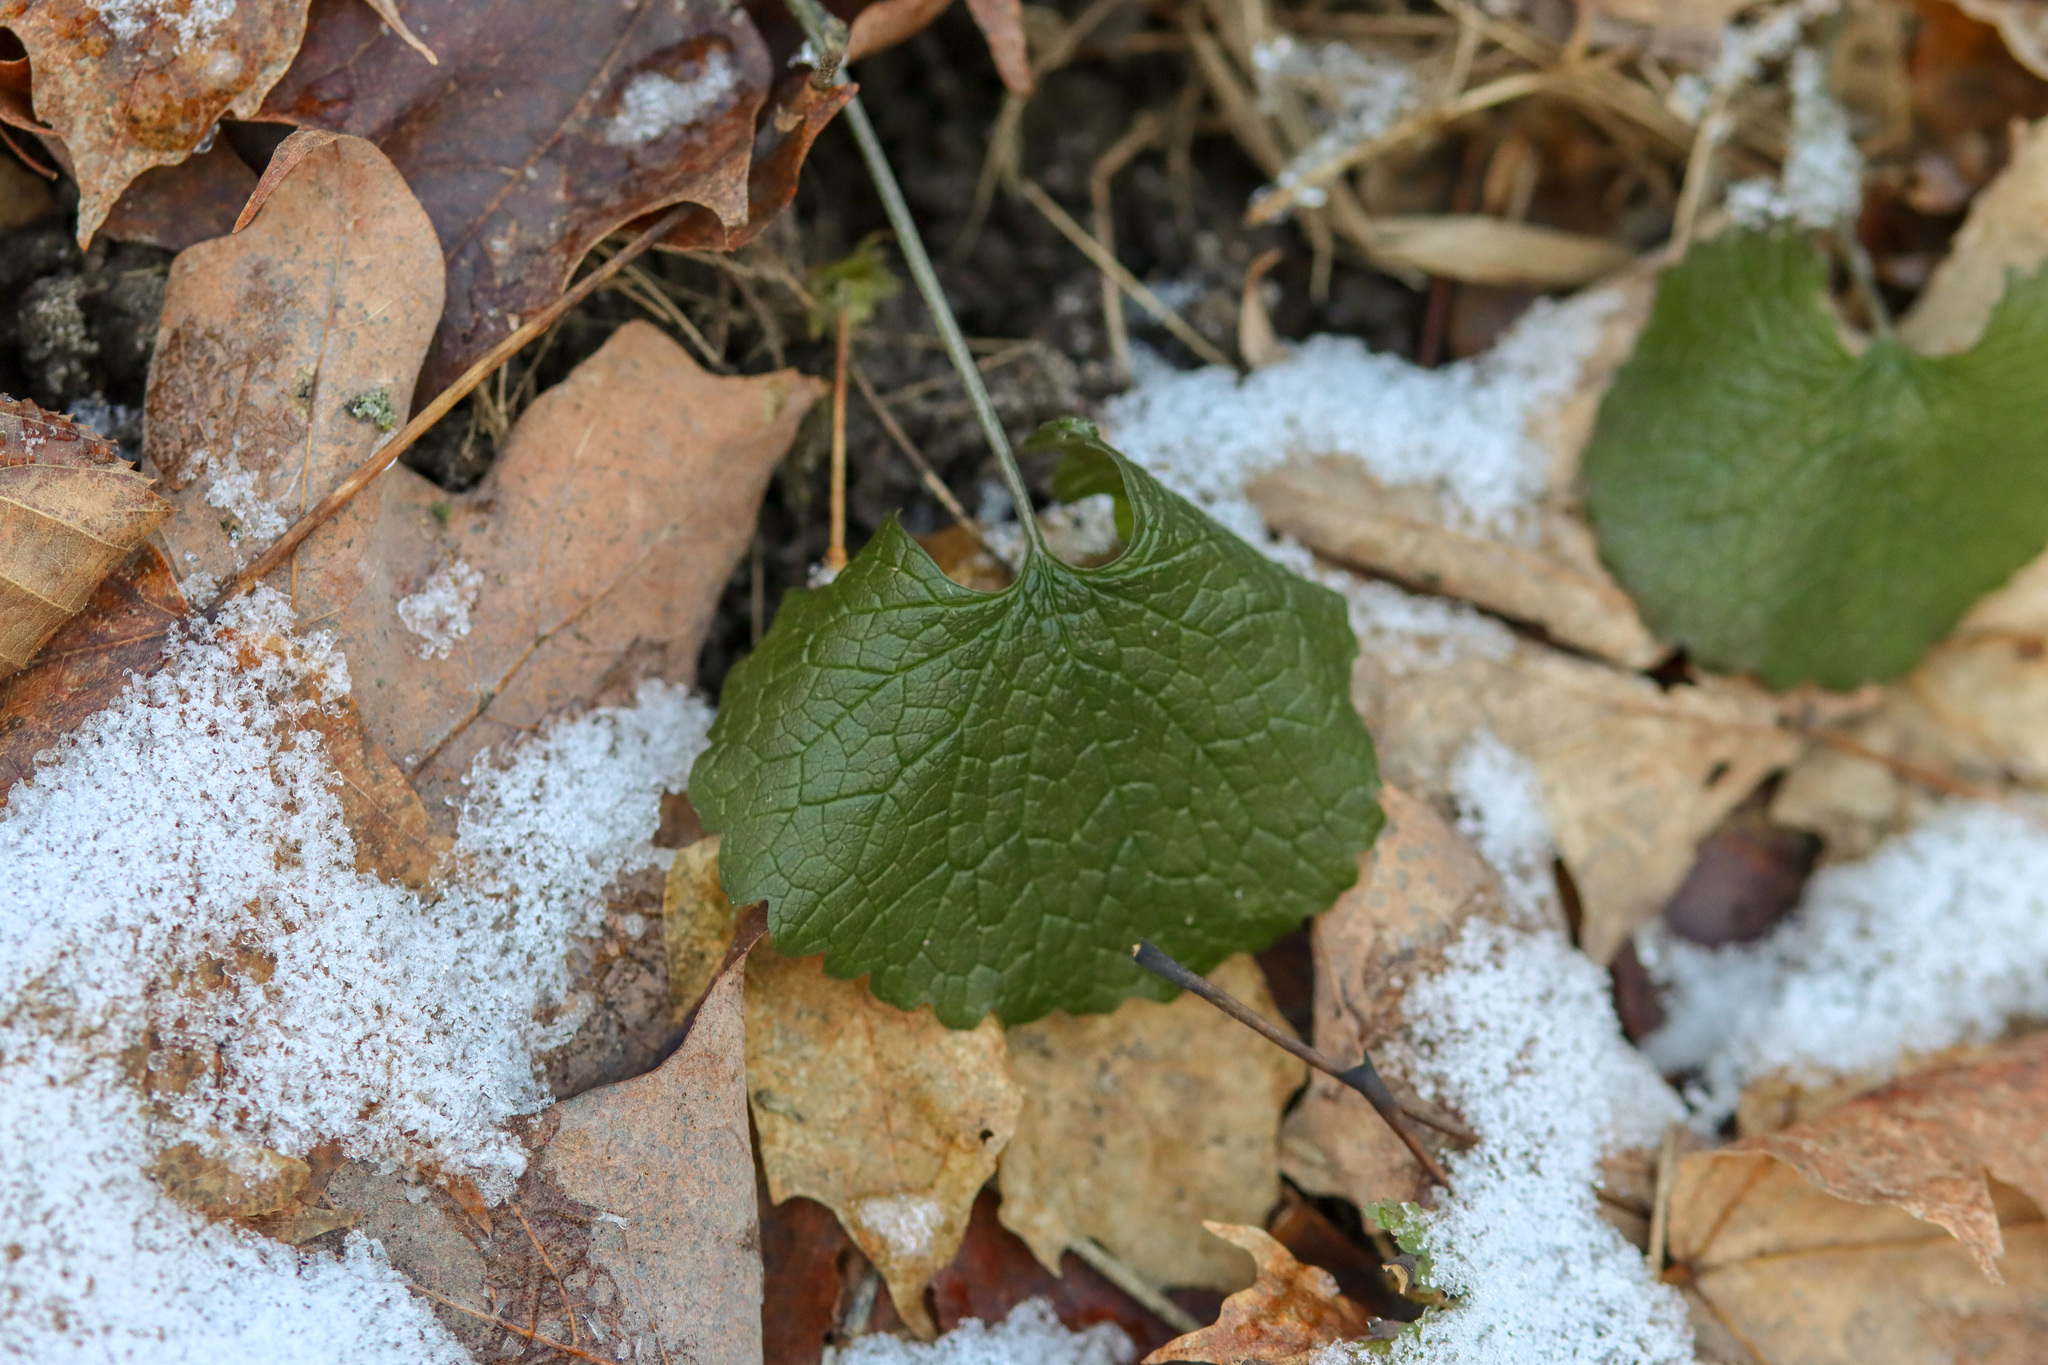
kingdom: Plantae
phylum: Tracheophyta
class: Magnoliopsida
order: Brassicales
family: Brassicaceae
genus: Alliaria
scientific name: Alliaria petiolata
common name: Garlic mustard
